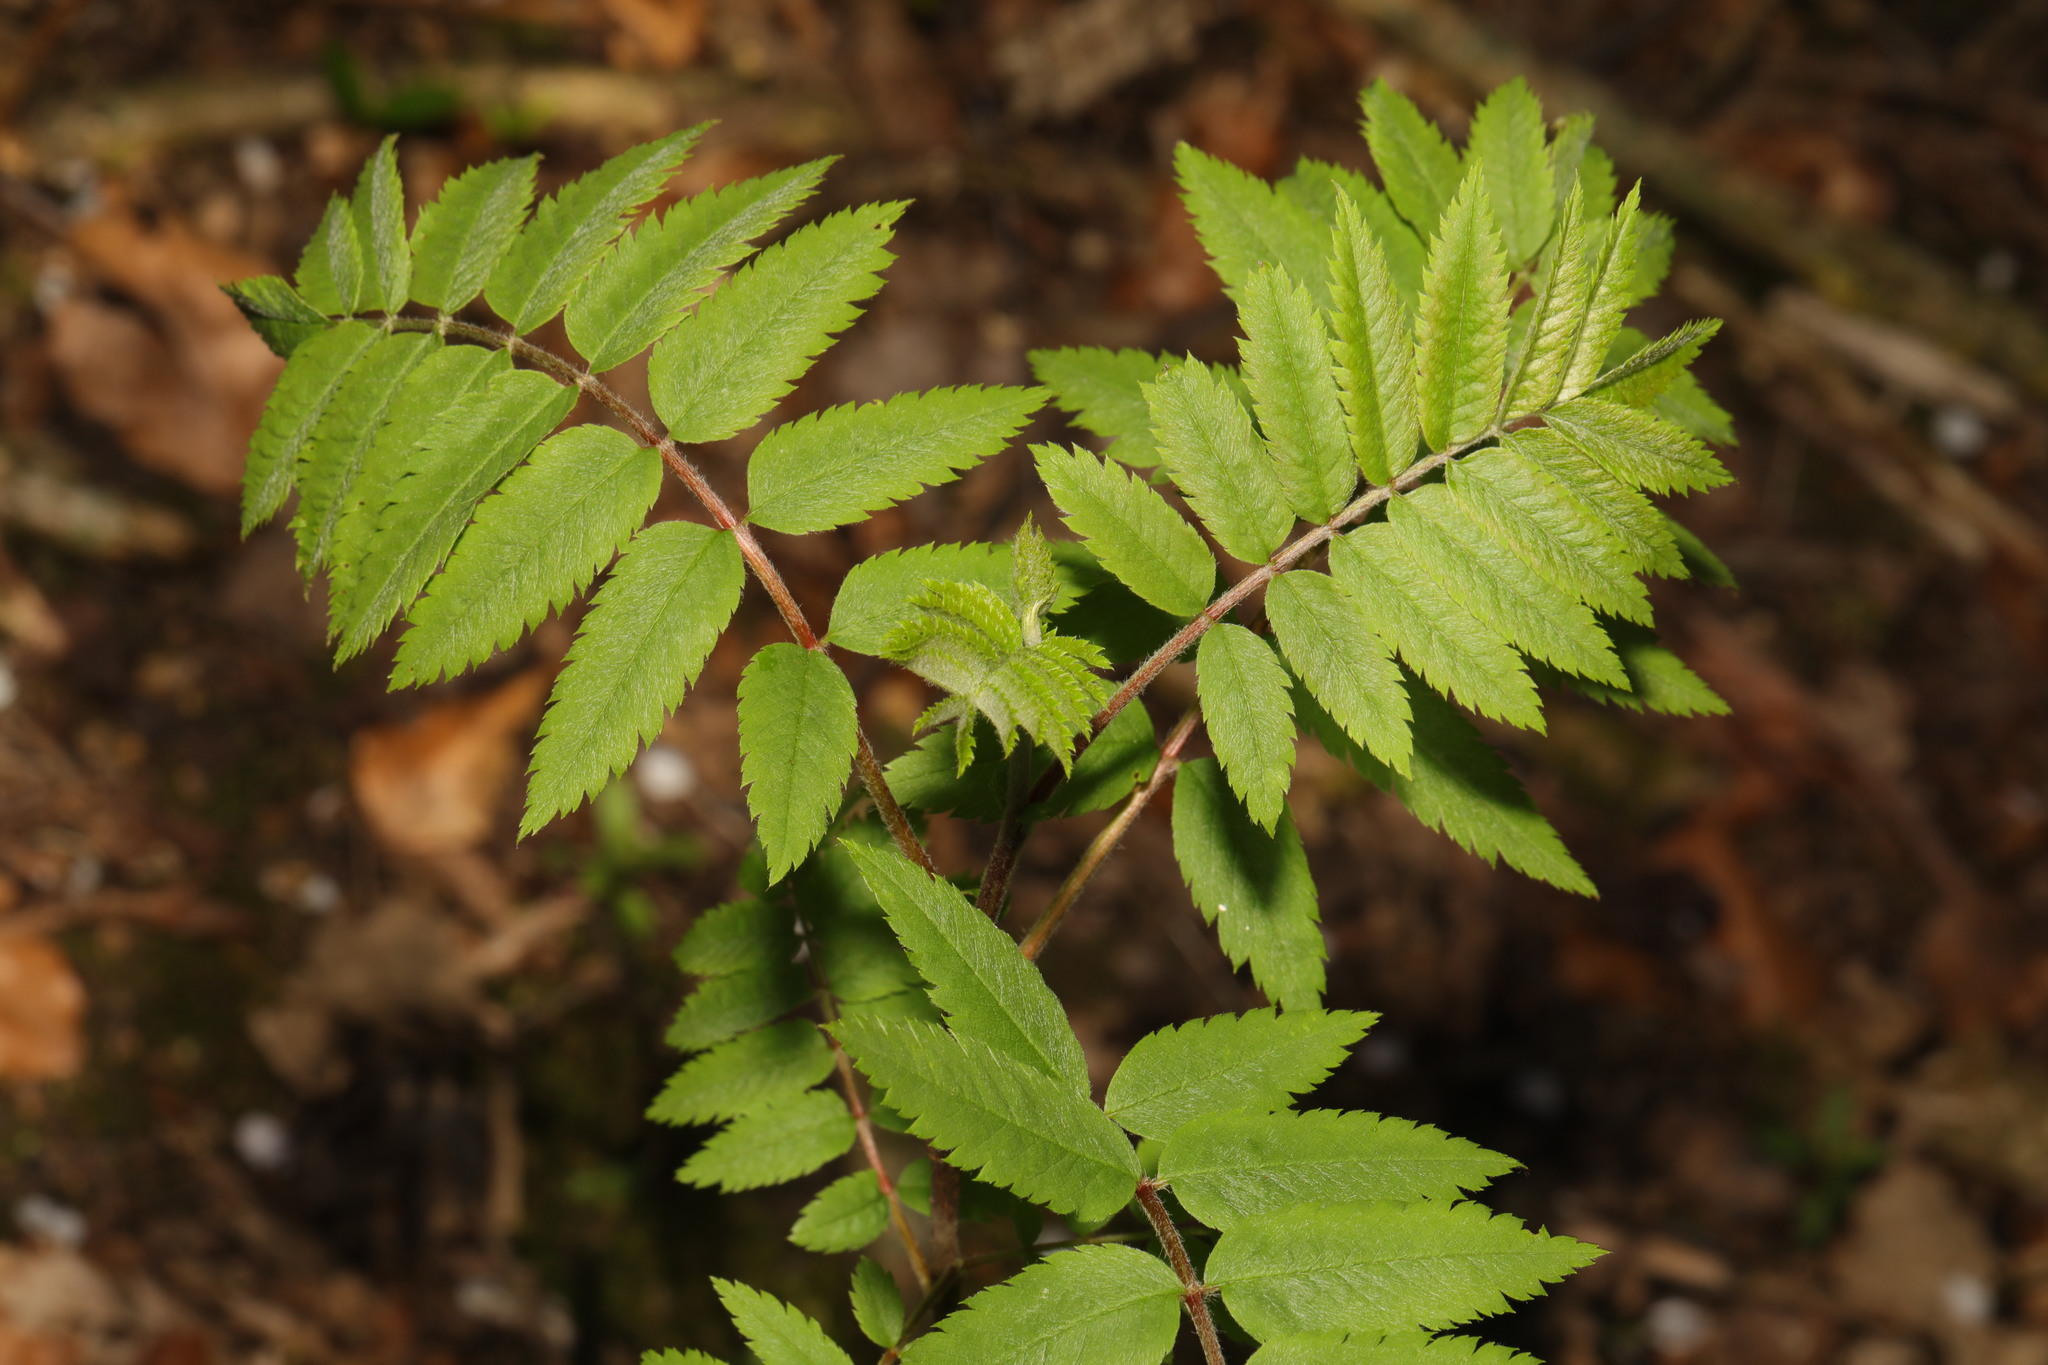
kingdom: Plantae
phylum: Tracheophyta
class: Magnoliopsida
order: Rosales
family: Rosaceae
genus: Sorbus
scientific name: Sorbus aucuparia
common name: Rowan
